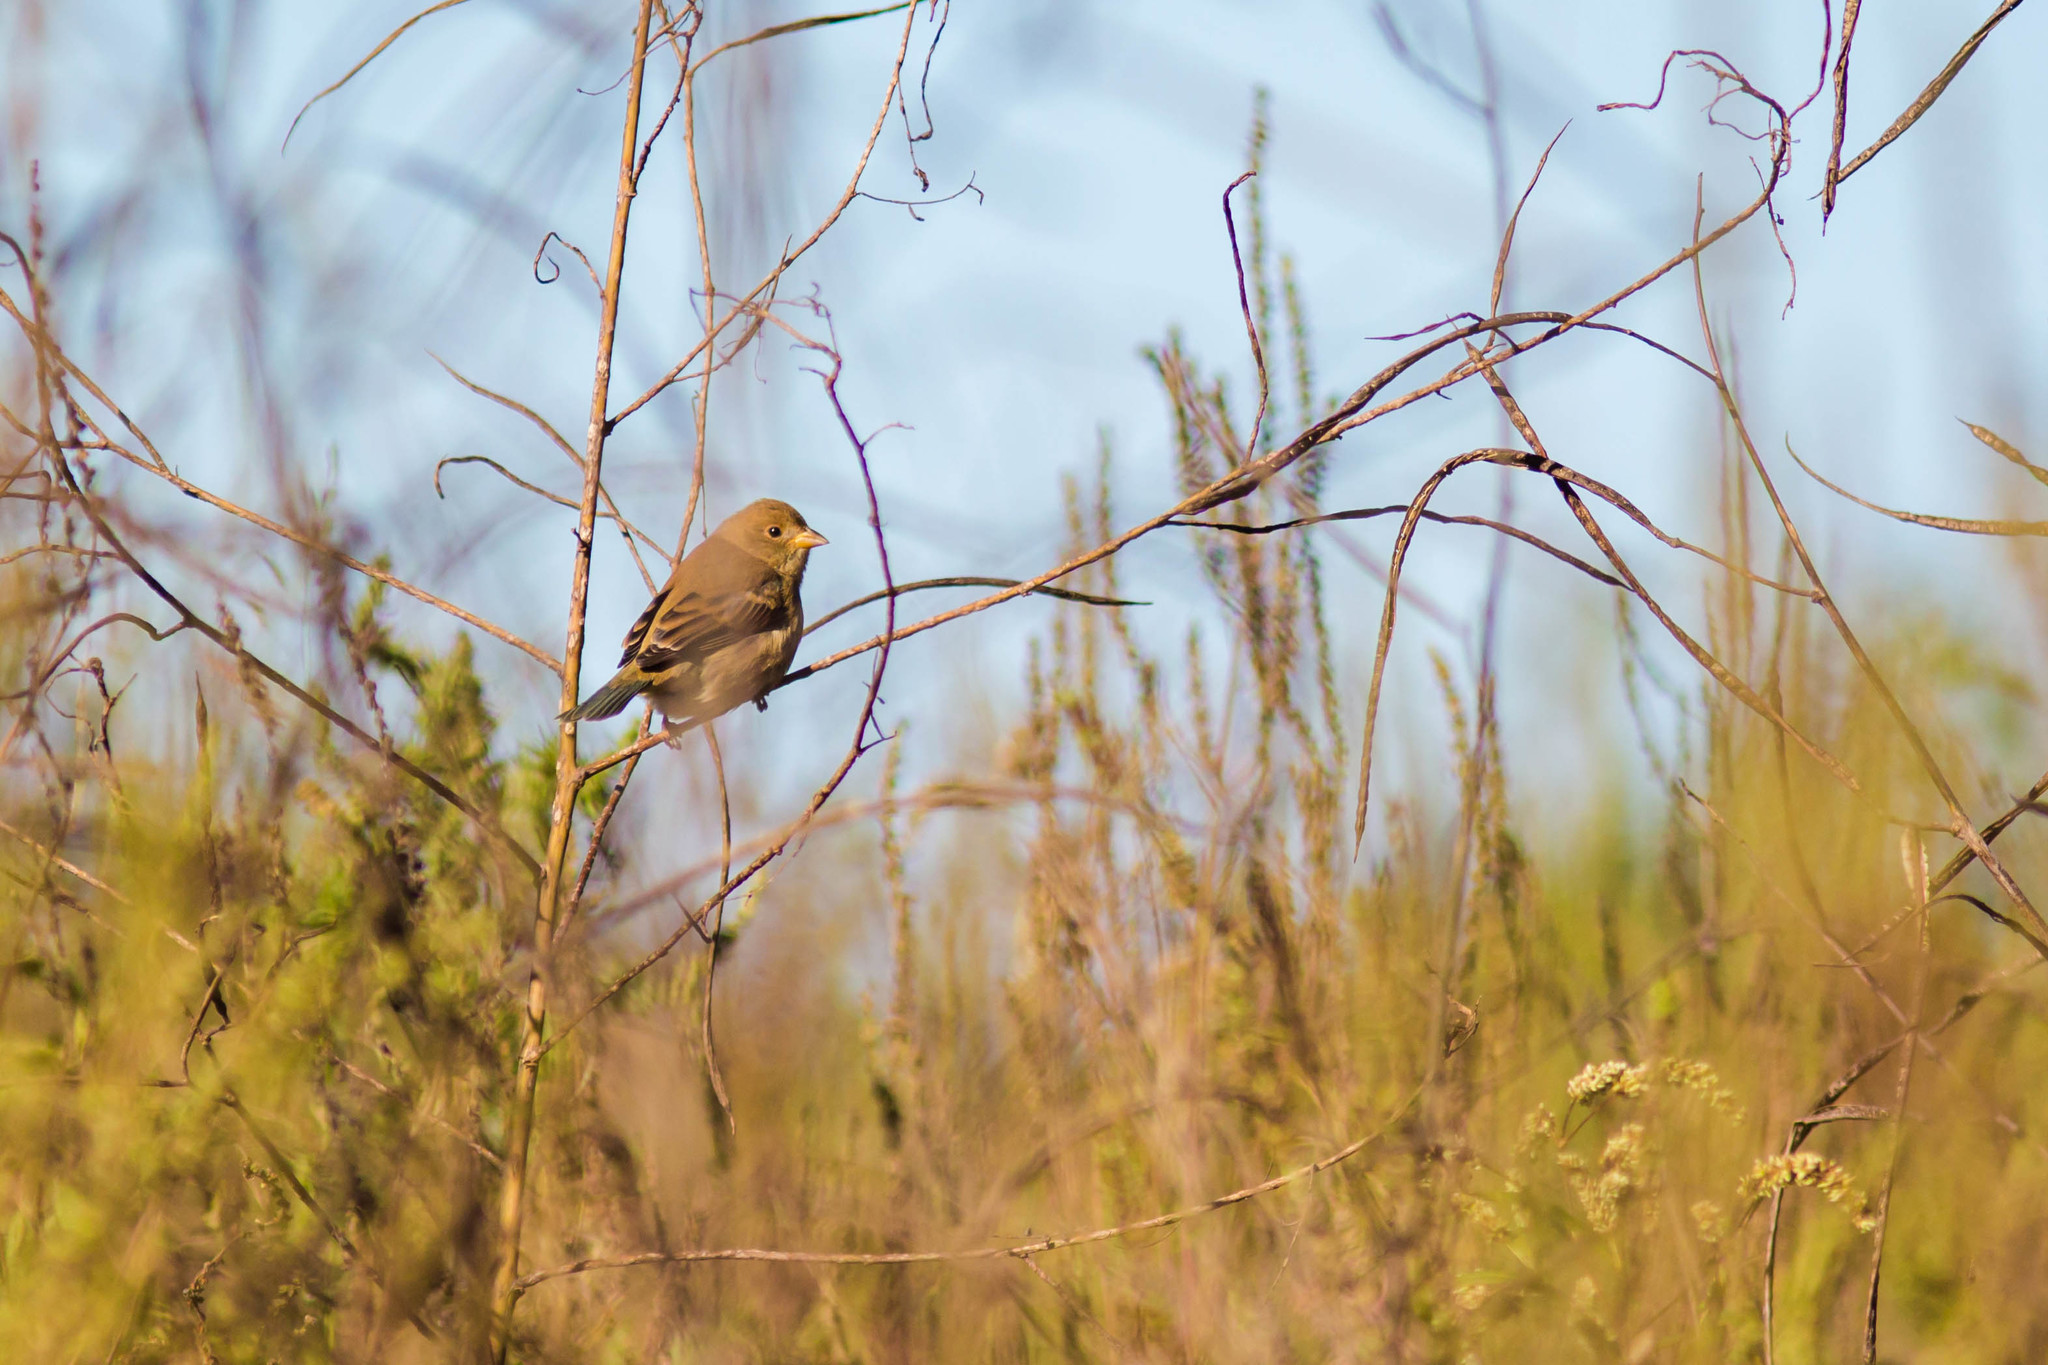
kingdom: Animalia
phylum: Chordata
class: Aves
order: Passeriformes
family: Cardinalidae
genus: Passerina
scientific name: Passerina cyanea
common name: Indigo bunting
